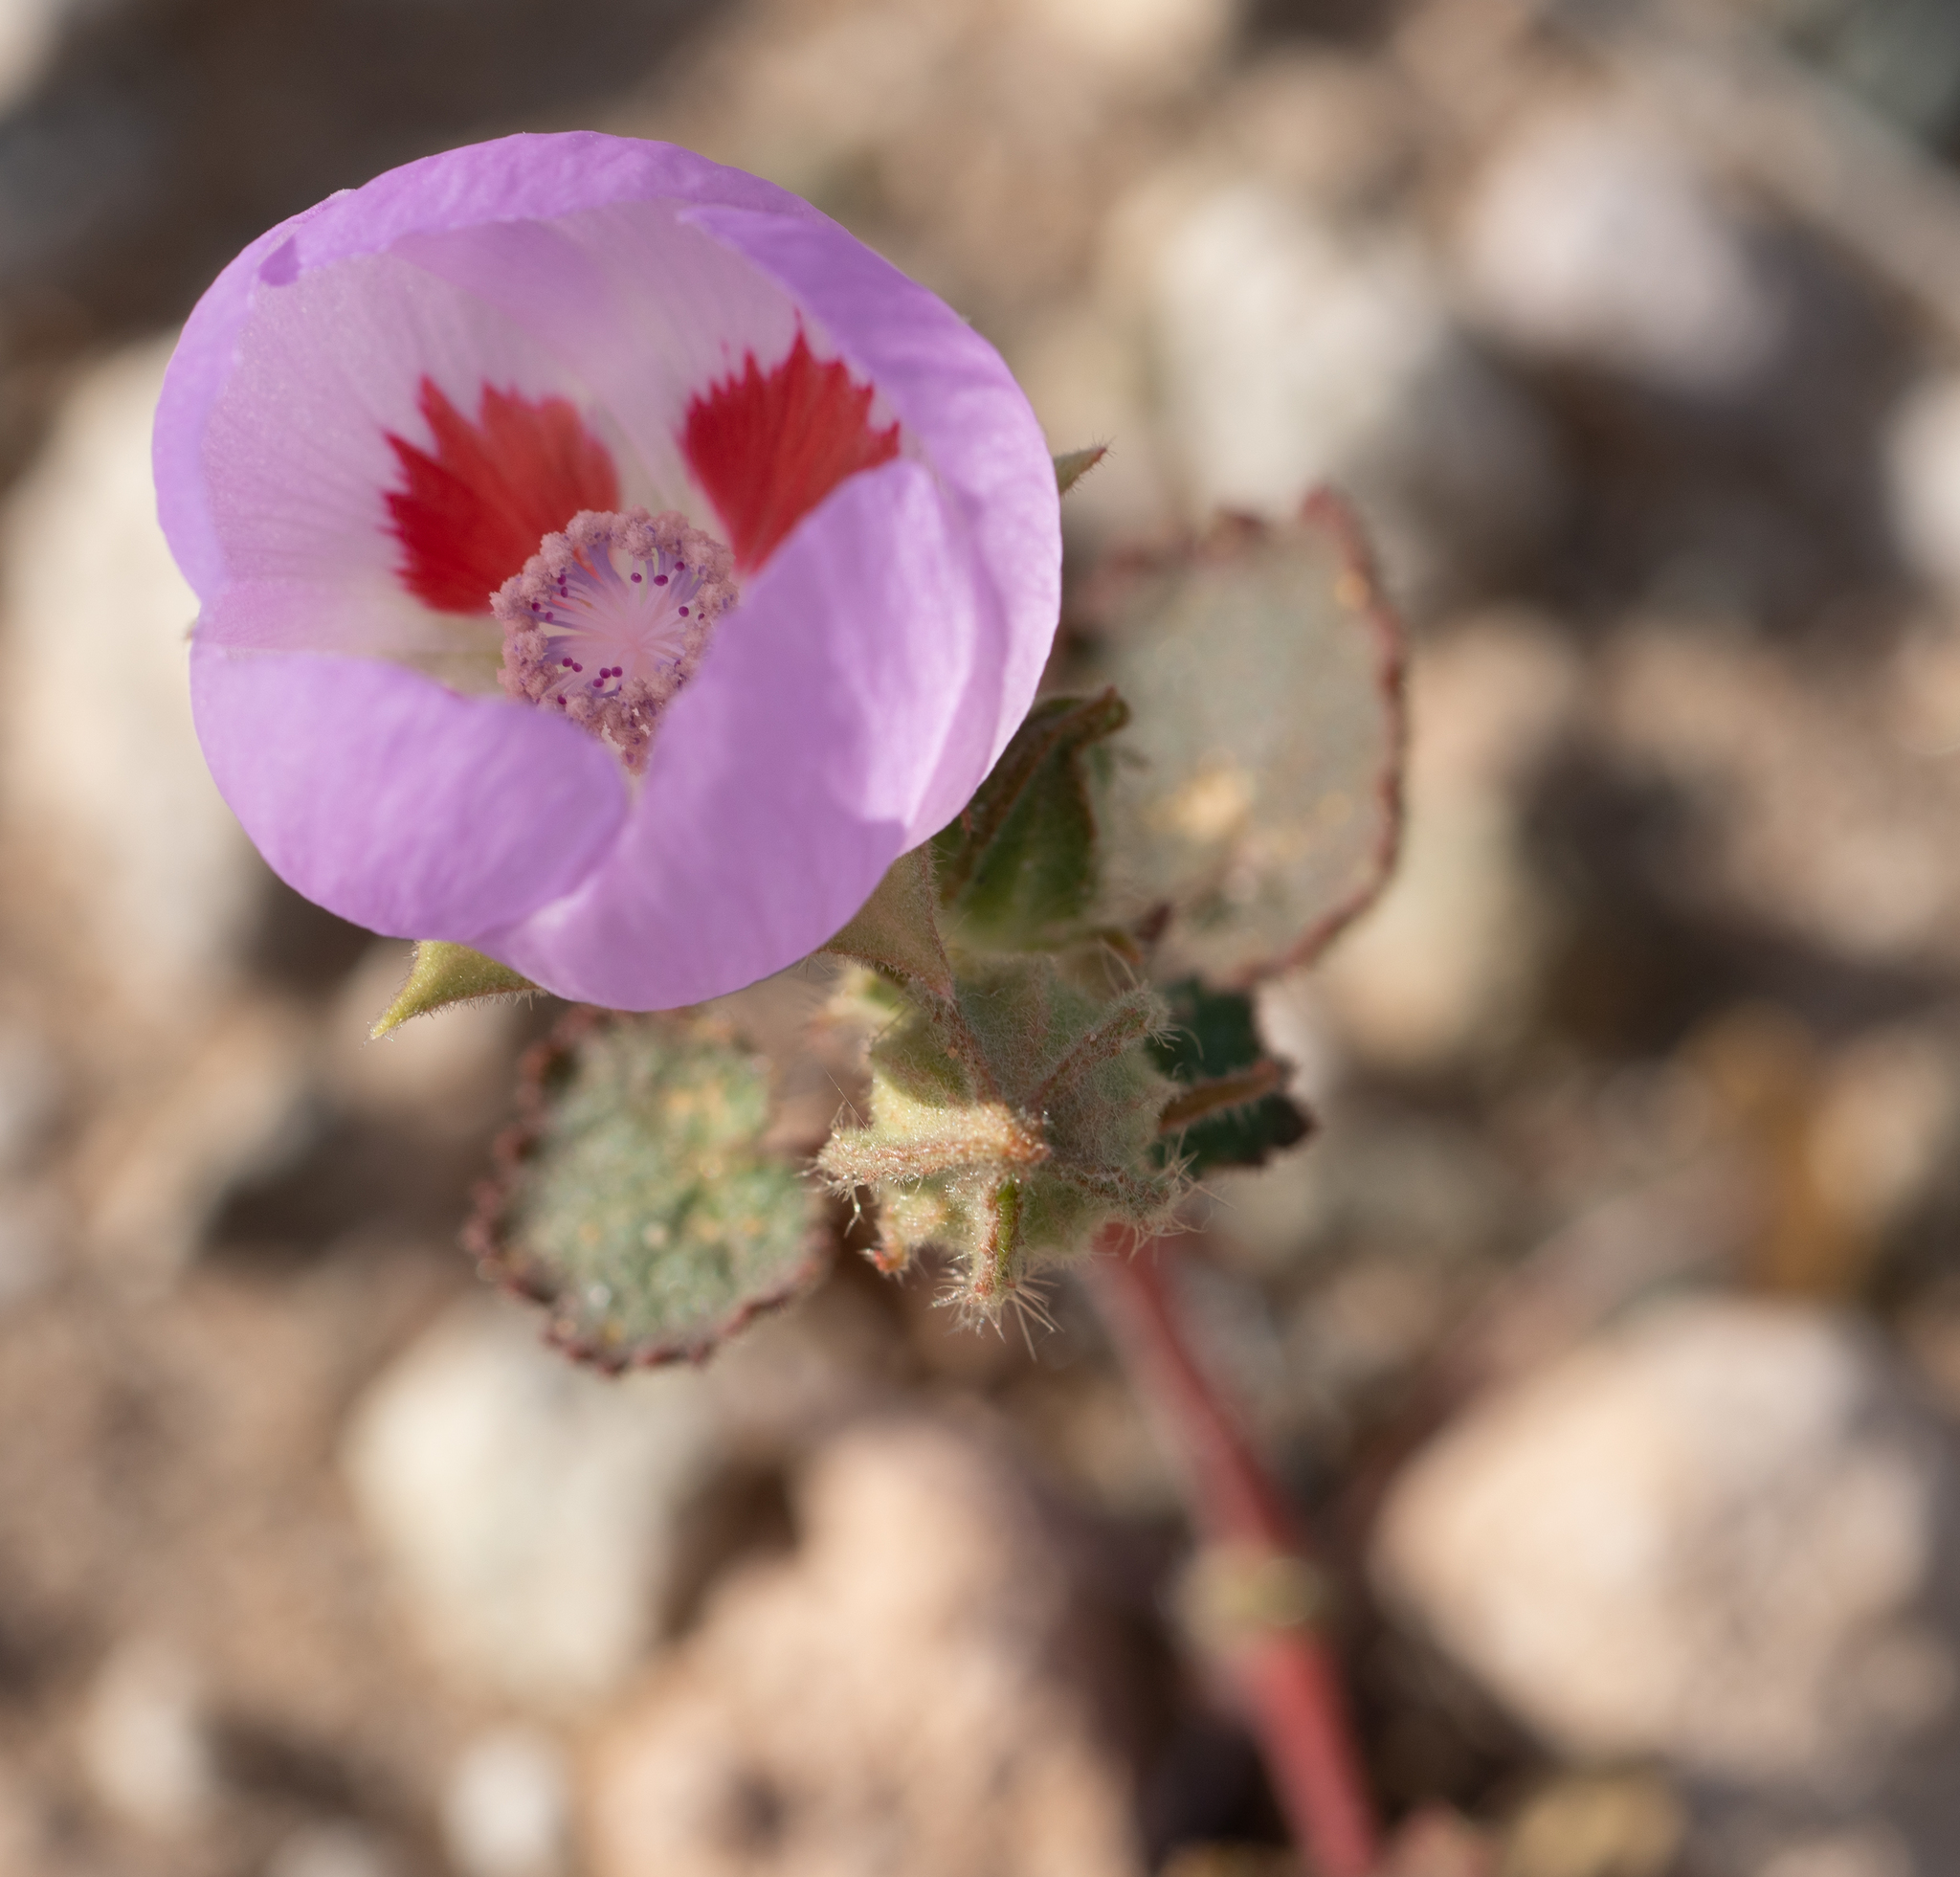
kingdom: Plantae
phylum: Tracheophyta
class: Magnoliopsida
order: Malvales
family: Malvaceae
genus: Eremalche
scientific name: Eremalche rotundifolia
